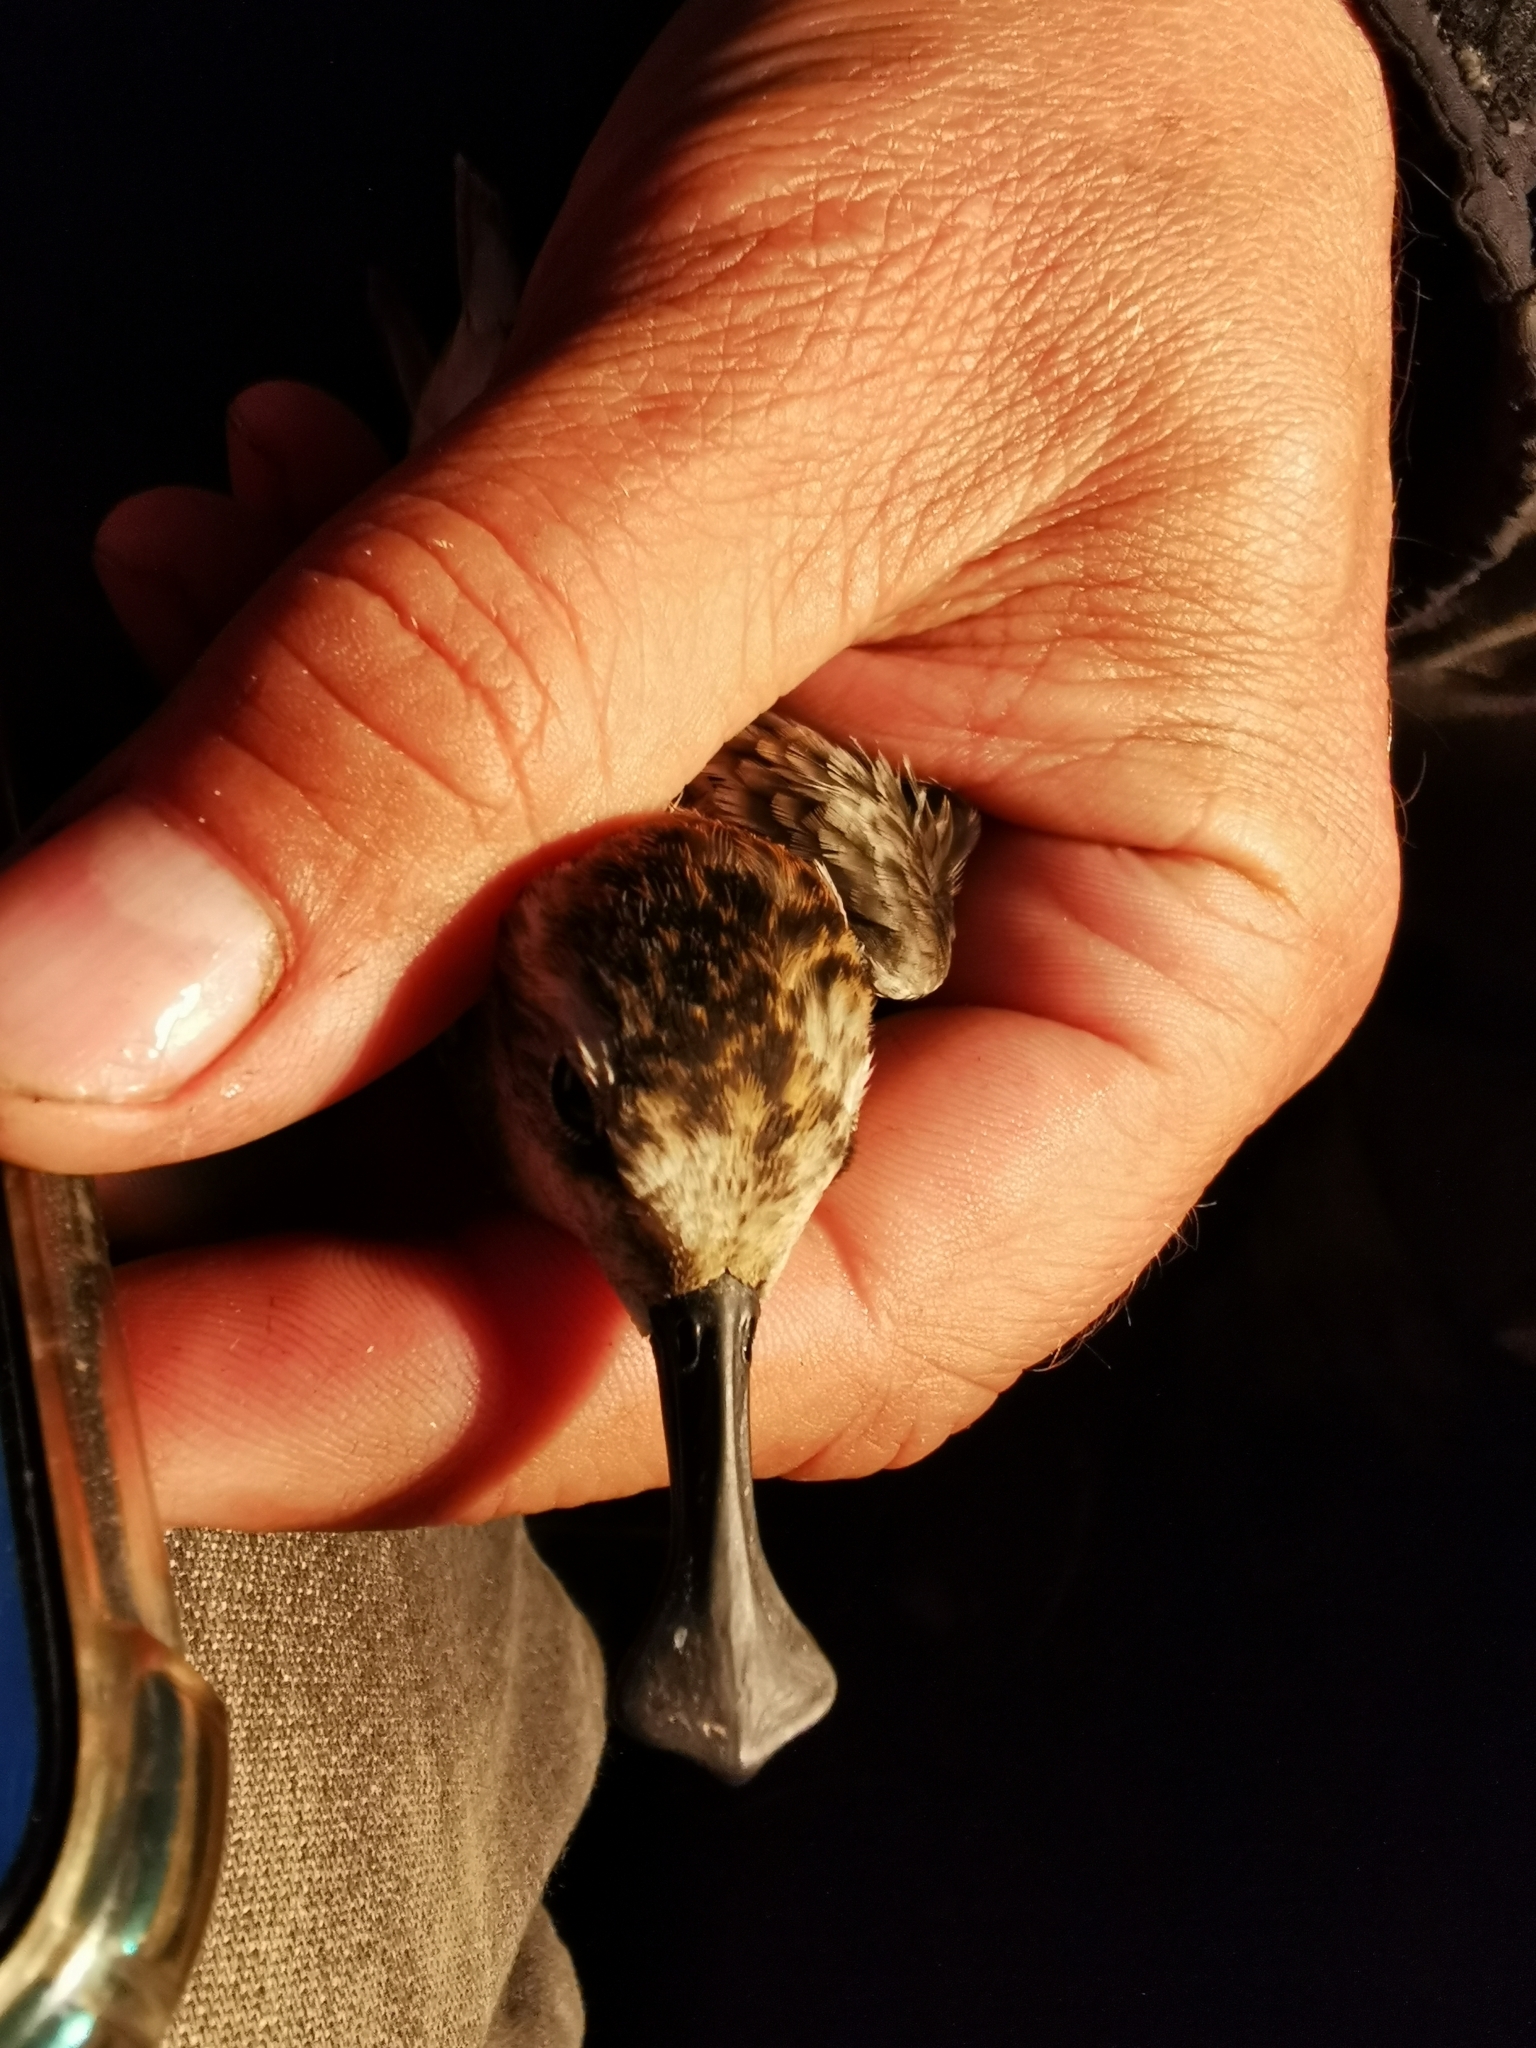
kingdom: Animalia
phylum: Chordata
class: Aves
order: Charadriiformes
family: Scolopacidae
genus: Calidris
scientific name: Calidris pygmaea
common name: Spoon-billed sandpiper
